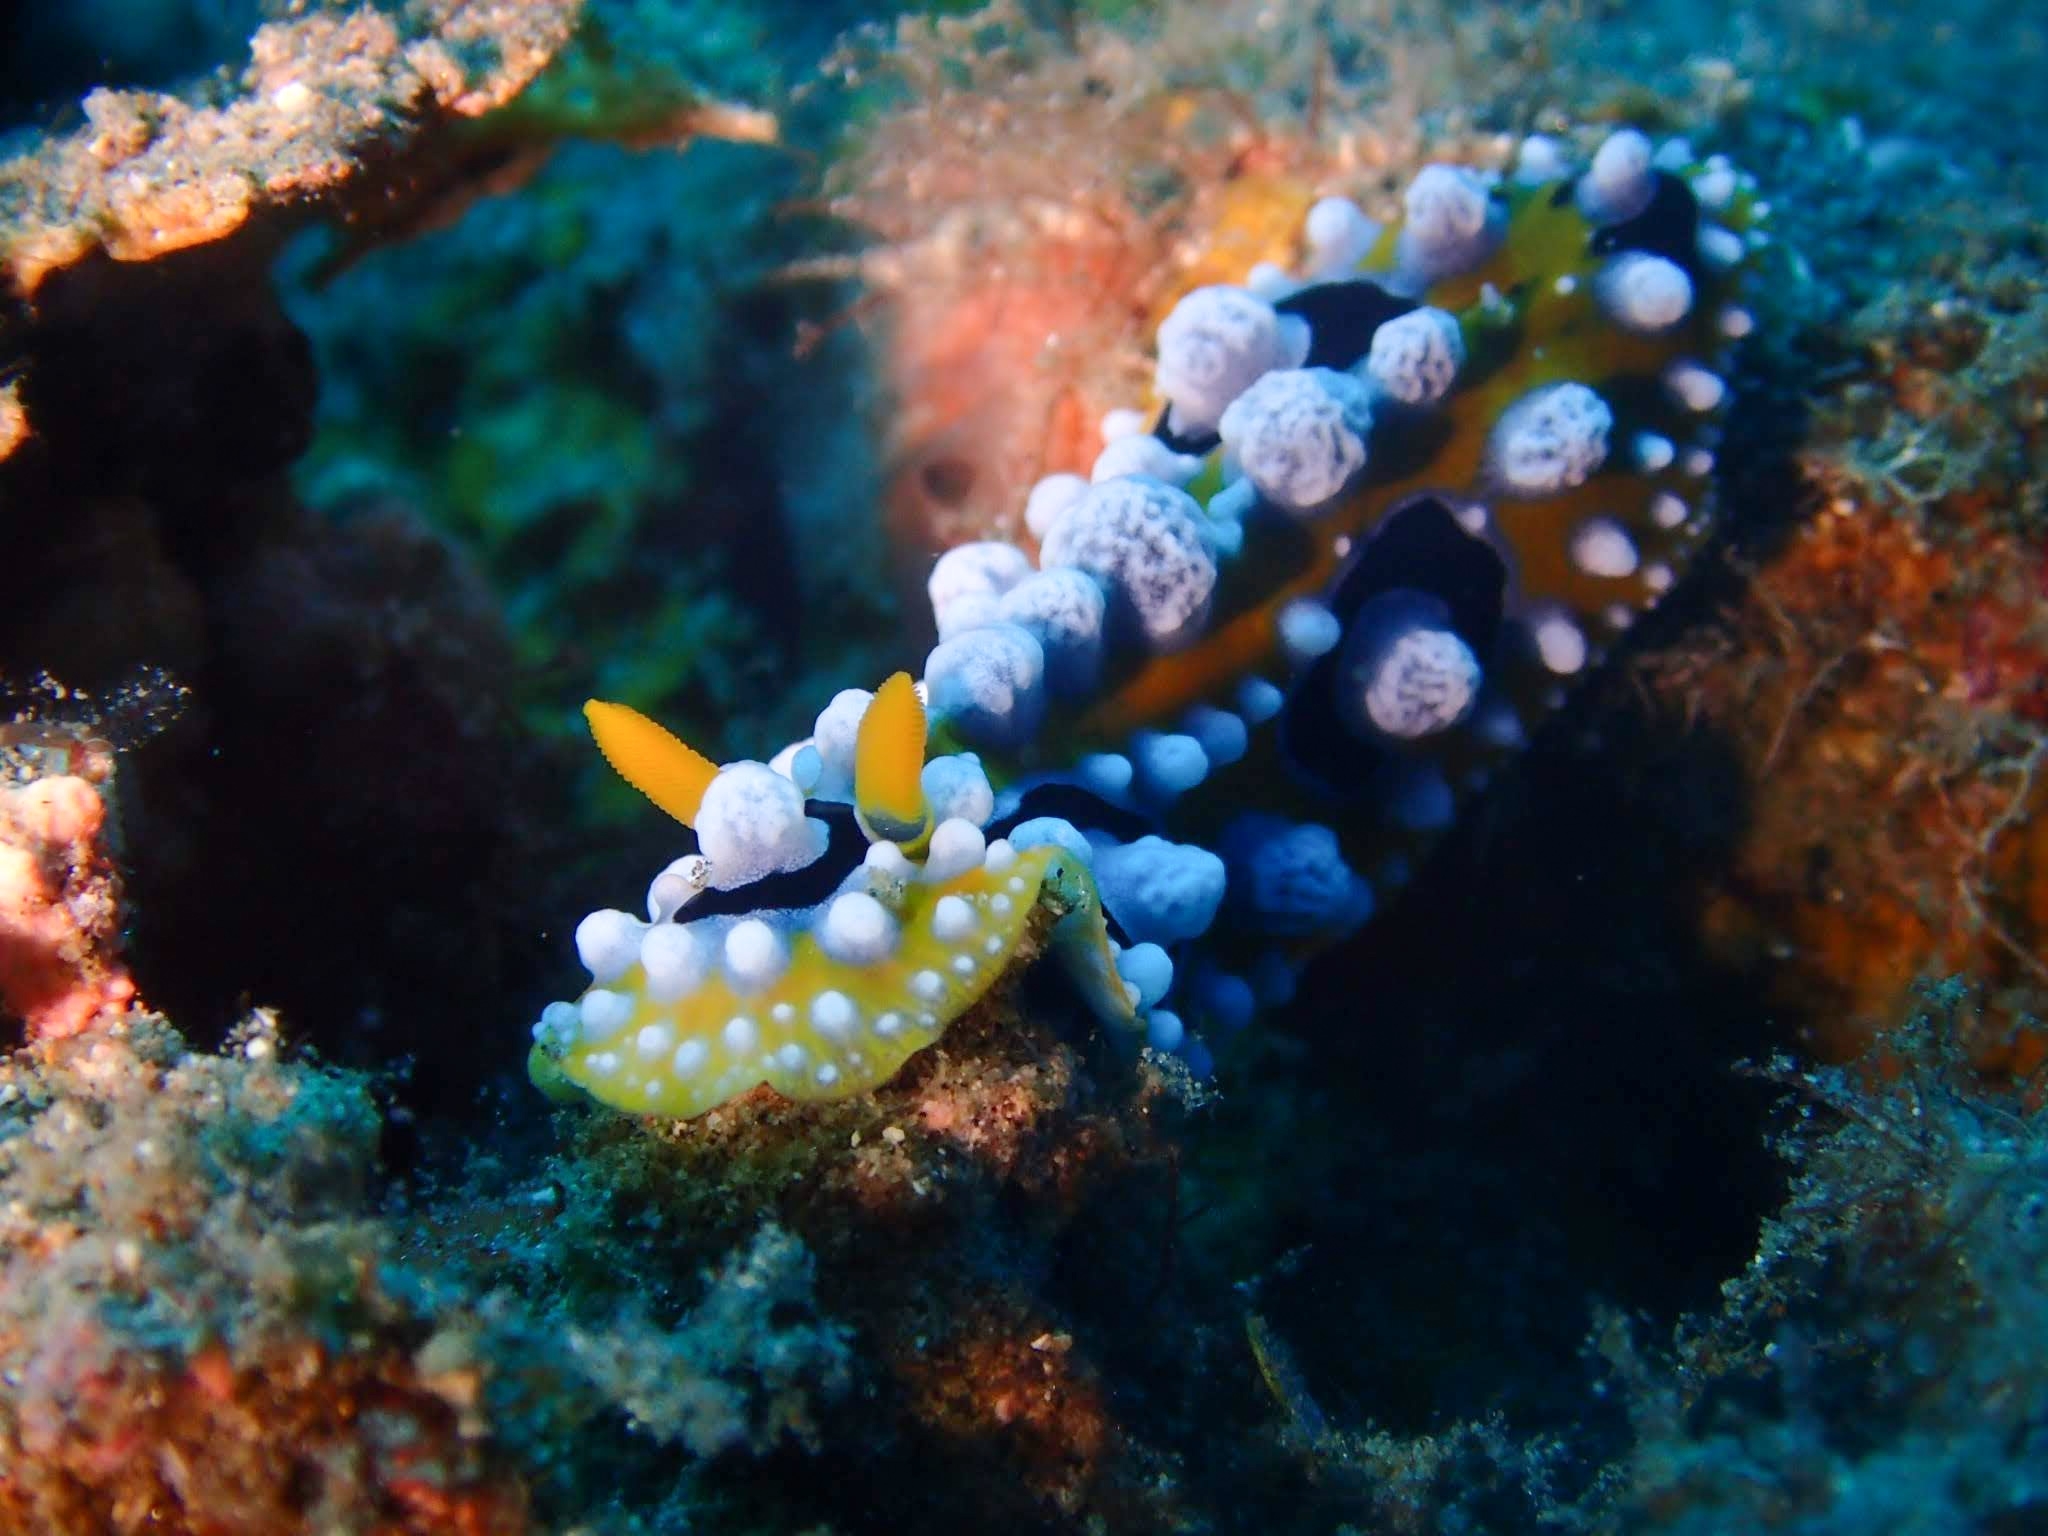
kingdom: Animalia
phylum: Mollusca
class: Gastropoda
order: Nudibranchia
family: Phyllidiidae
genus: Phyllidia
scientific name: Phyllidia ocellata
